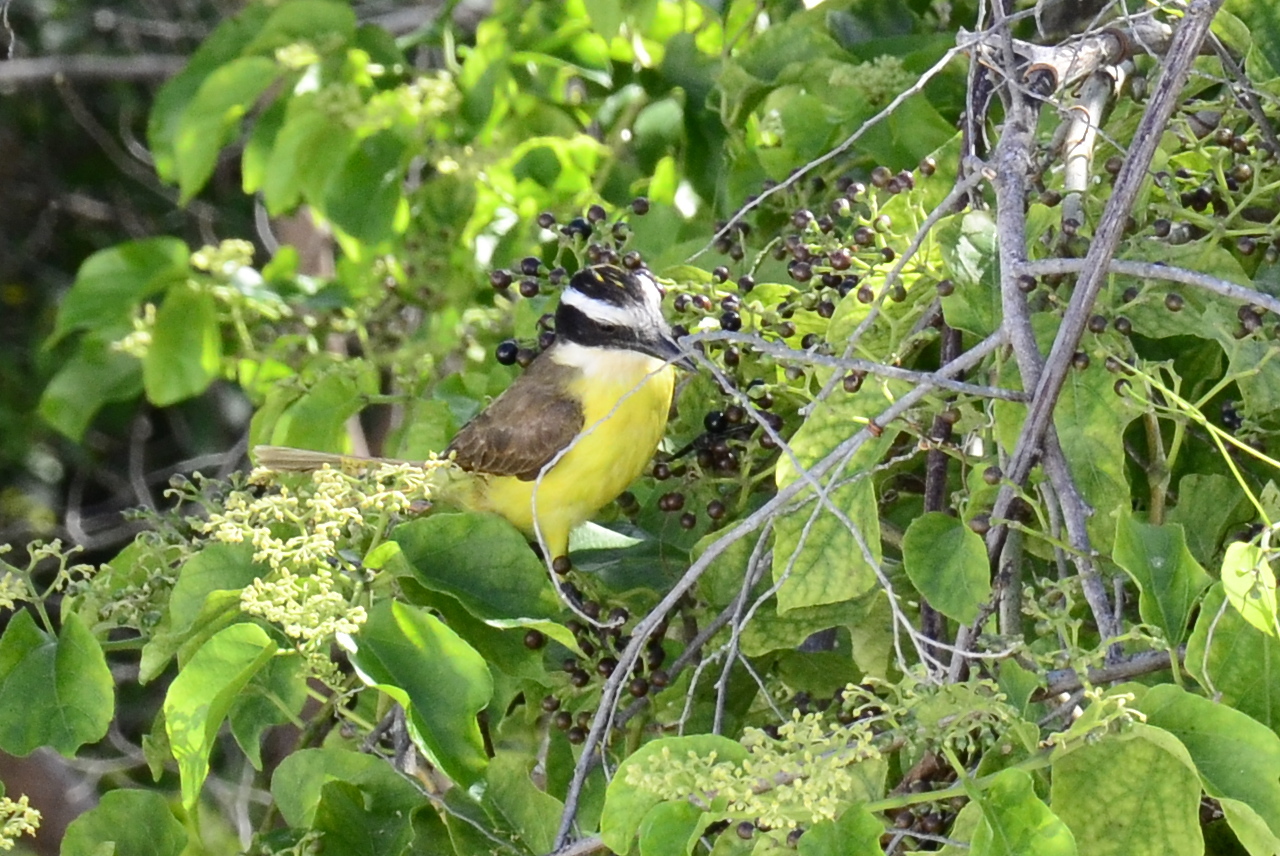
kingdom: Animalia
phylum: Chordata
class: Aves
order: Passeriformes
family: Tyrannidae
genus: Pitangus
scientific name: Pitangus sulphuratus
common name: Great kiskadee
